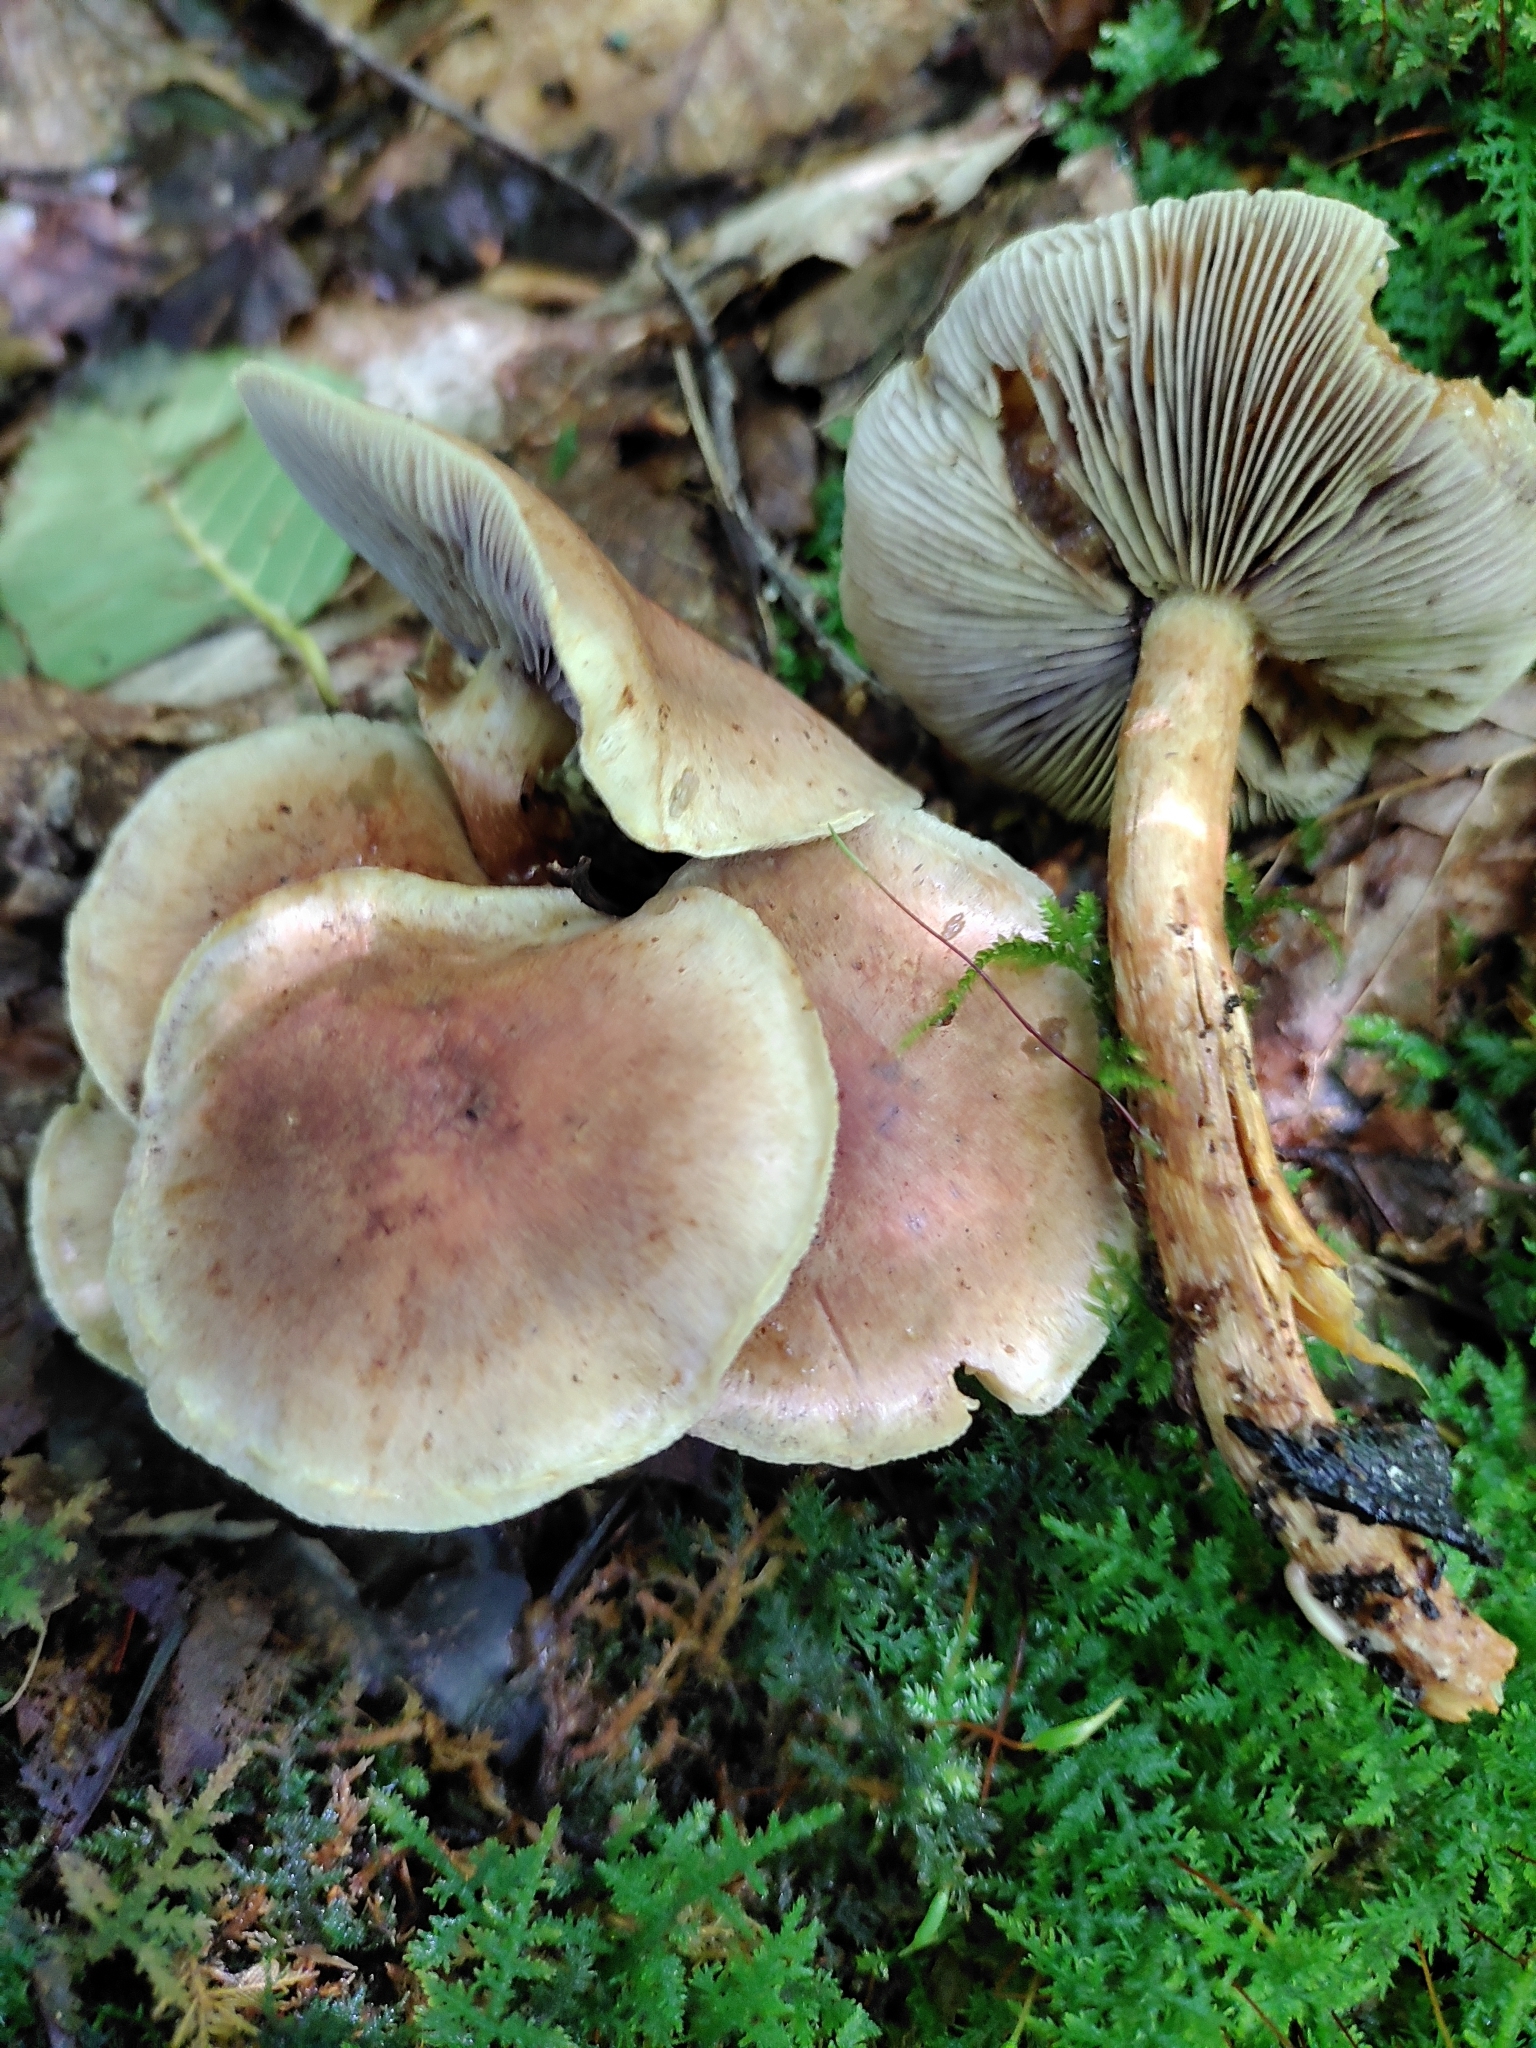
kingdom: Fungi
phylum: Basidiomycota
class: Agaricomycetes
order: Agaricales
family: Strophariaceae
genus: Hypholoma
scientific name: Hypholoma lateritium
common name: Brick caps
